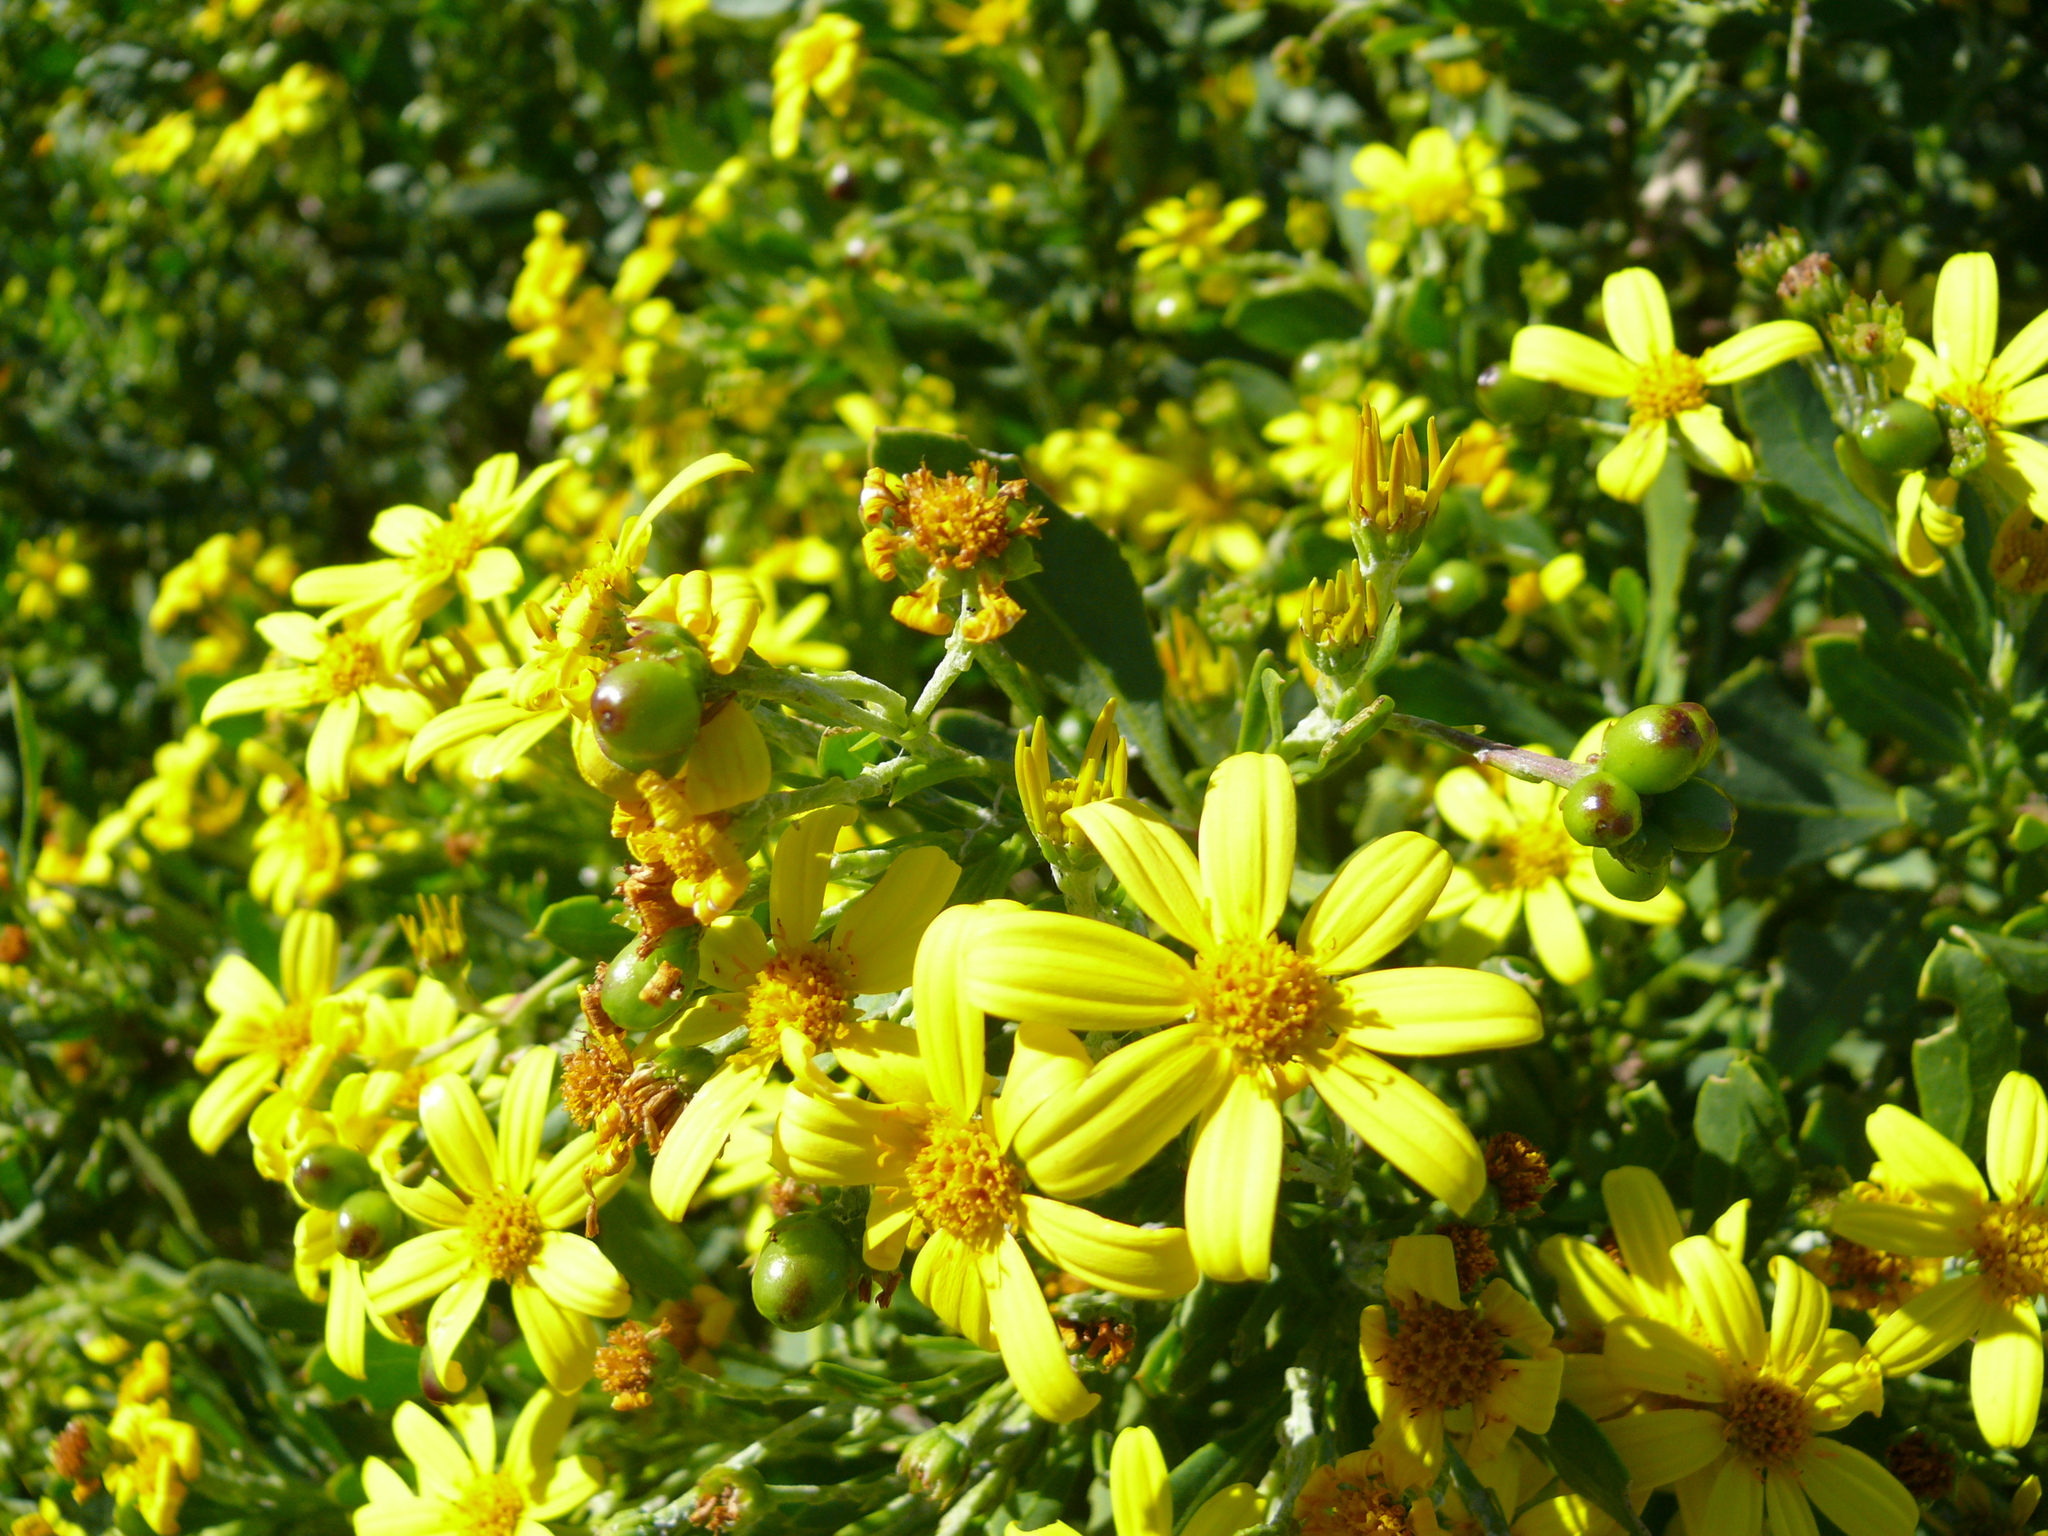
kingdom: Plantae
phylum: Tracheophyta
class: Magnoliopsida
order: Asterales
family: Asteraceae
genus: Osteospermum
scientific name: Osteospermum moniliferum
